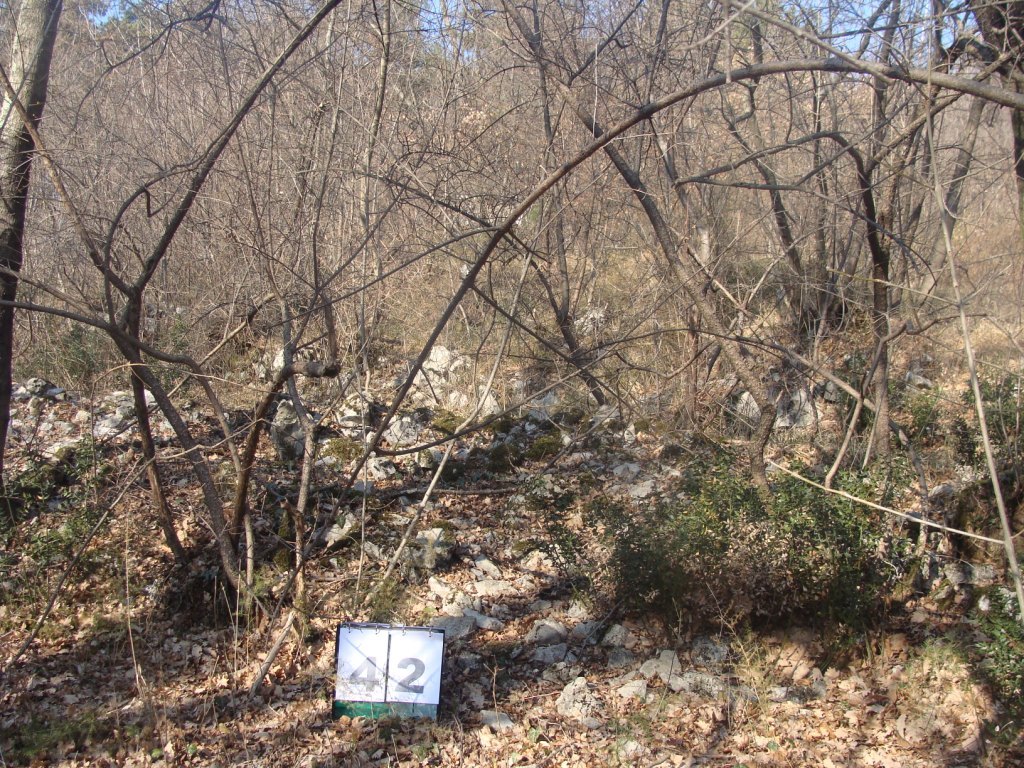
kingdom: Plantae
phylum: Tracheophyta
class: Magnoliopsida
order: Cornales
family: Cornaceae
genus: Cornus
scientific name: Cornus mas
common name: Cornelian-cherry
